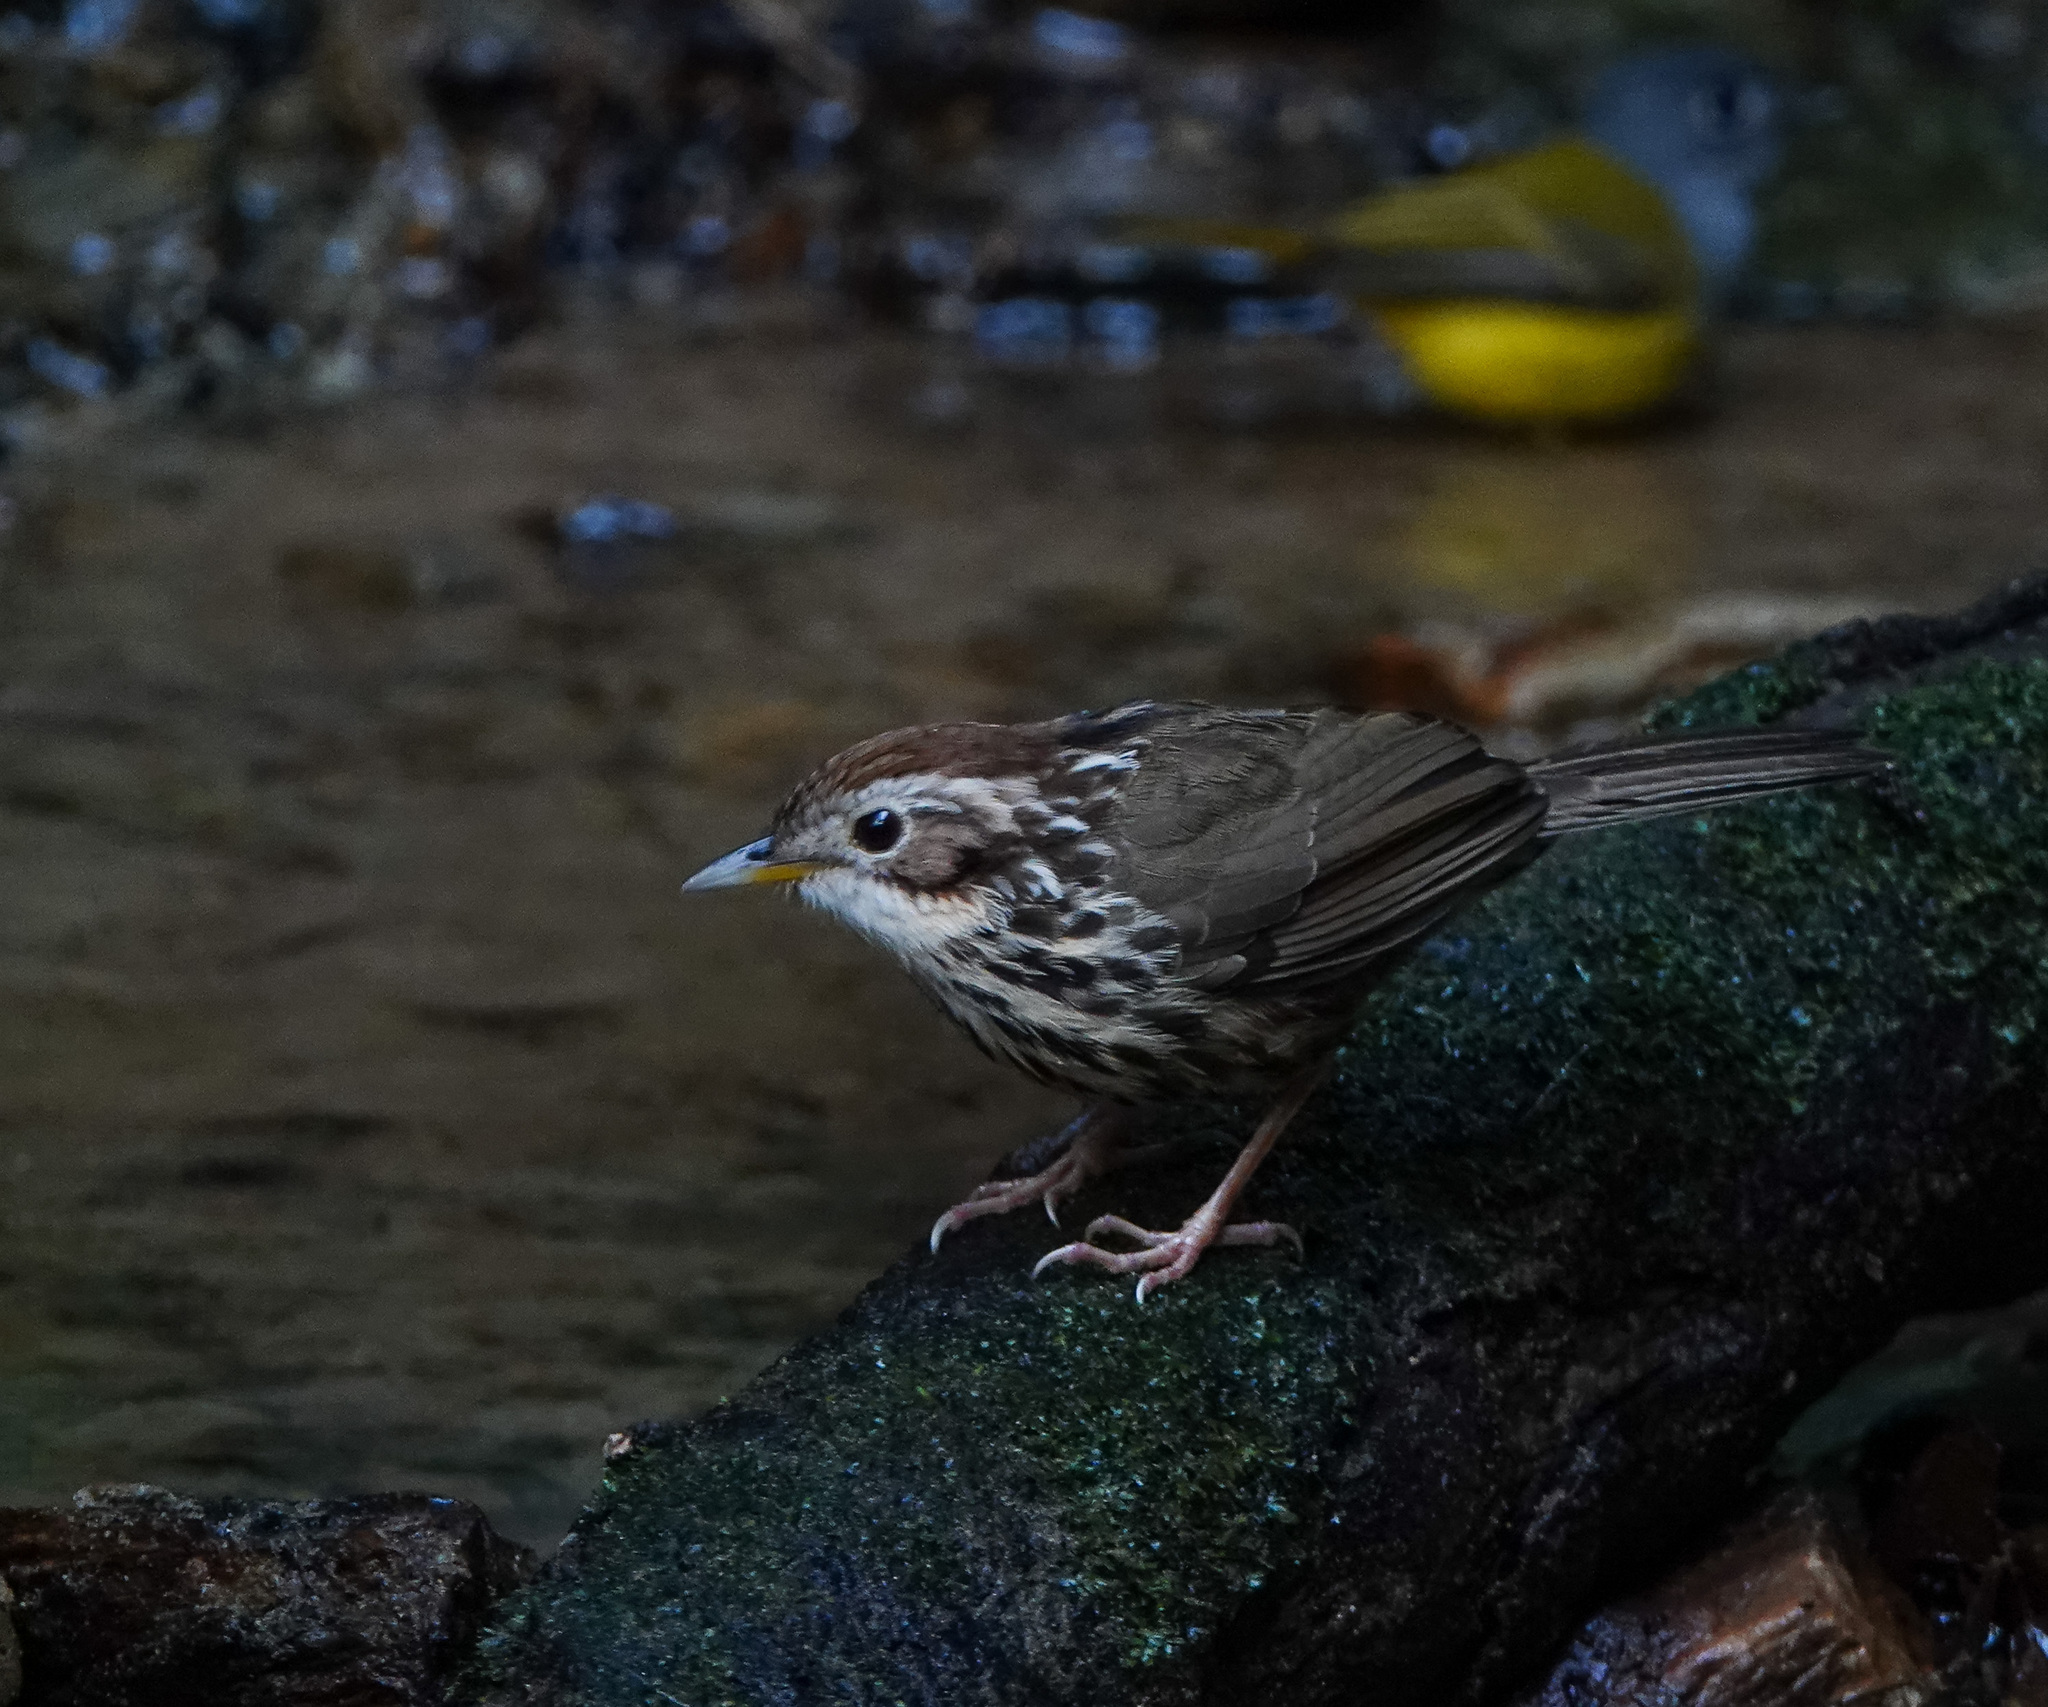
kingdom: Animalia
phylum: Chordata
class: Aves
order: Passeriformes
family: Pellorneidae
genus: Pellorneum
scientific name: Pellorneum ruficeps
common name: Puff-throated babbler
